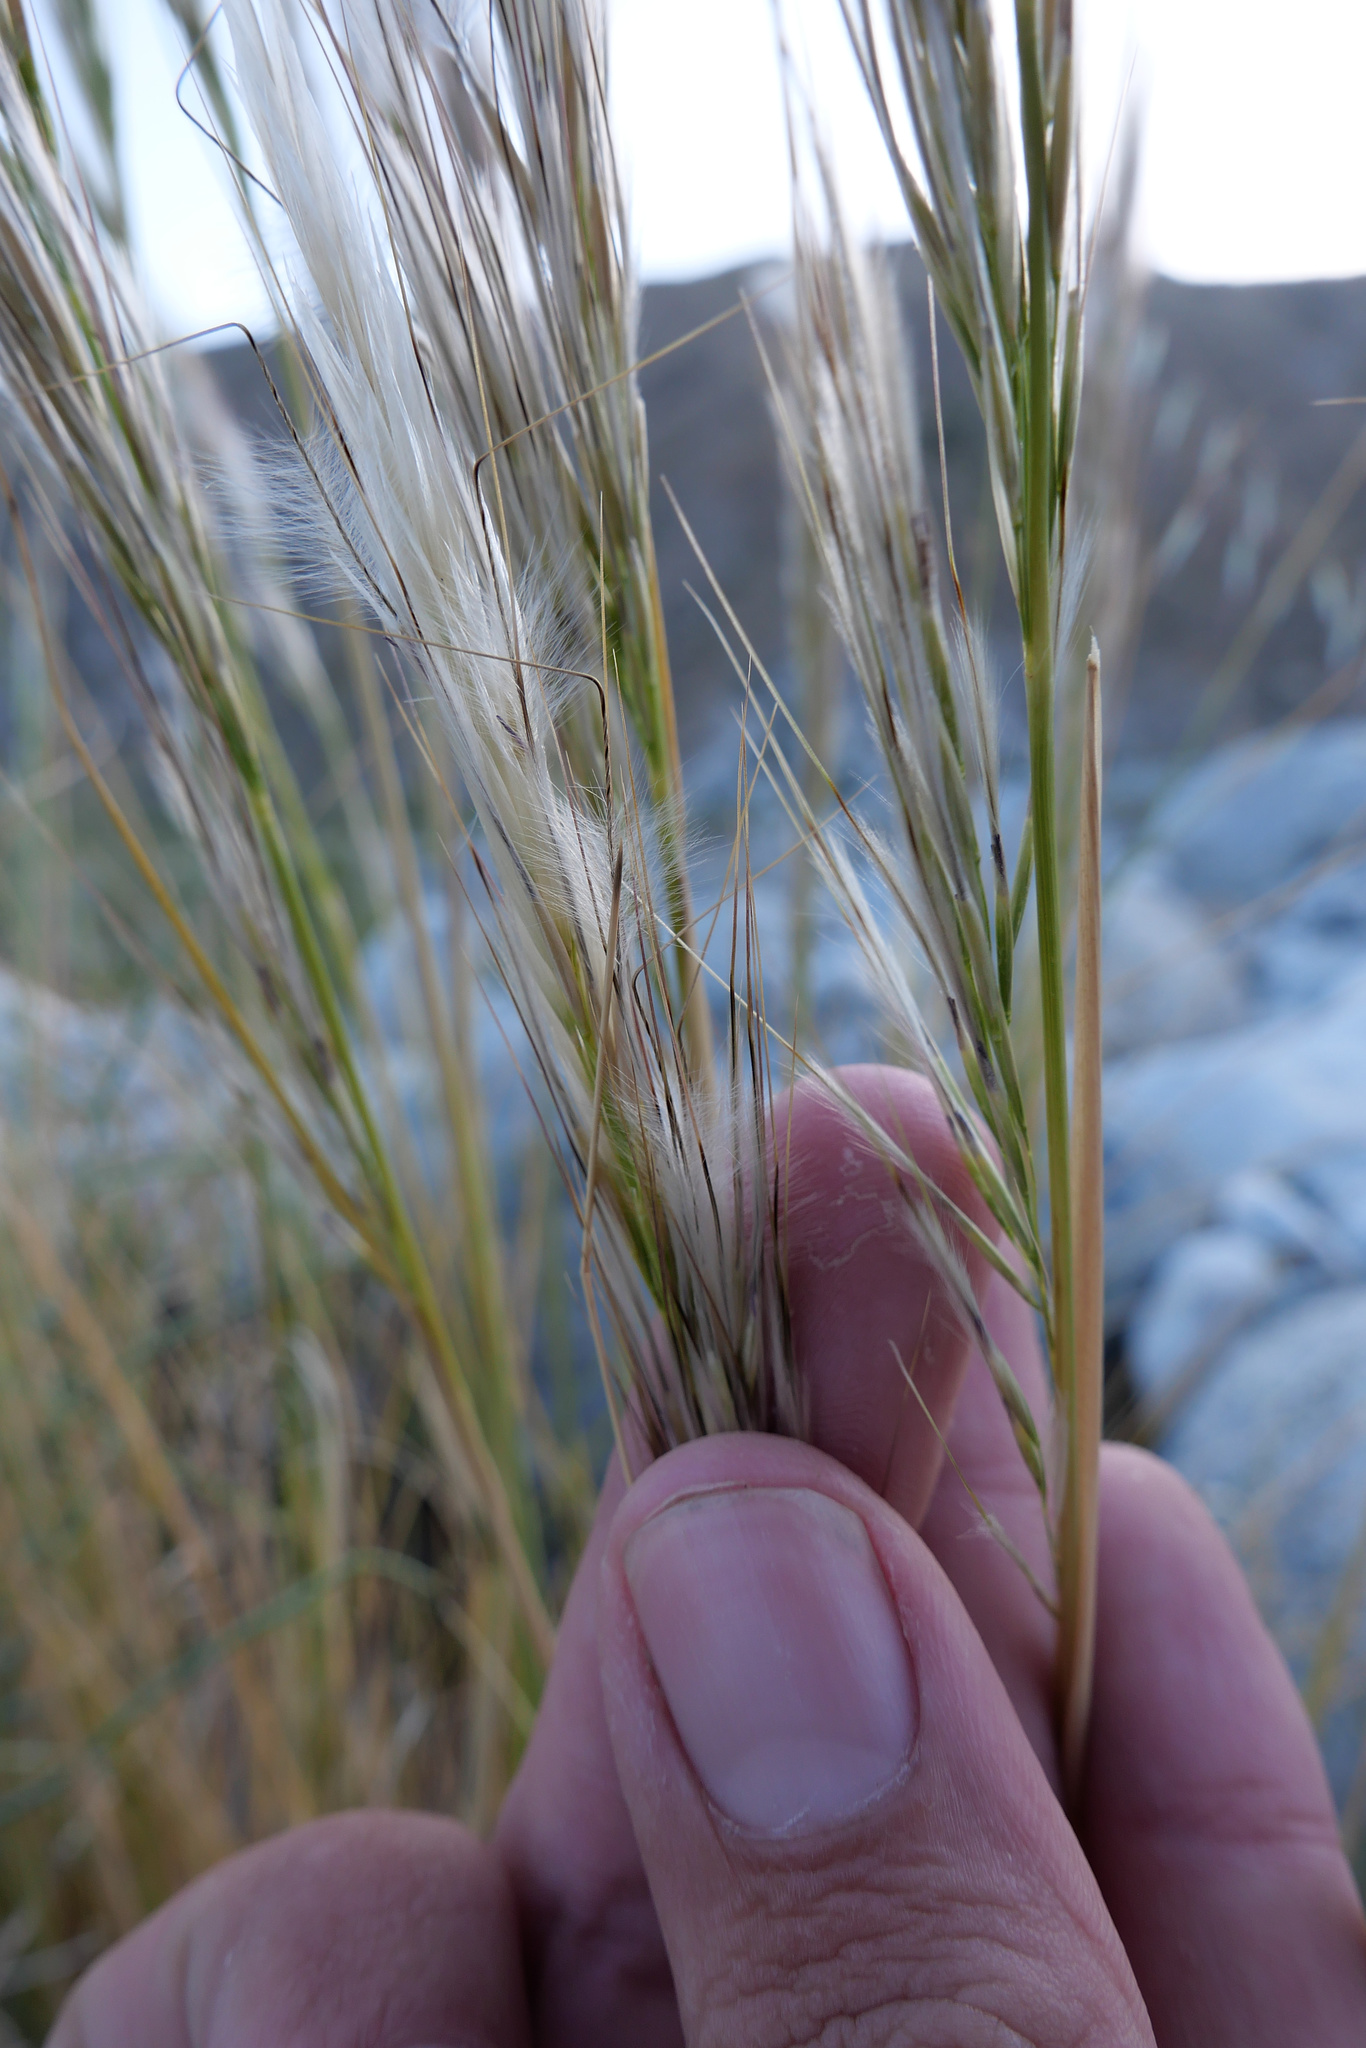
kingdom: Plantae
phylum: Tracheophyta
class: Liliopsida
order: Poales
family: Poaceae
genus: Pappostipa
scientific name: Pappostipa speciosa
